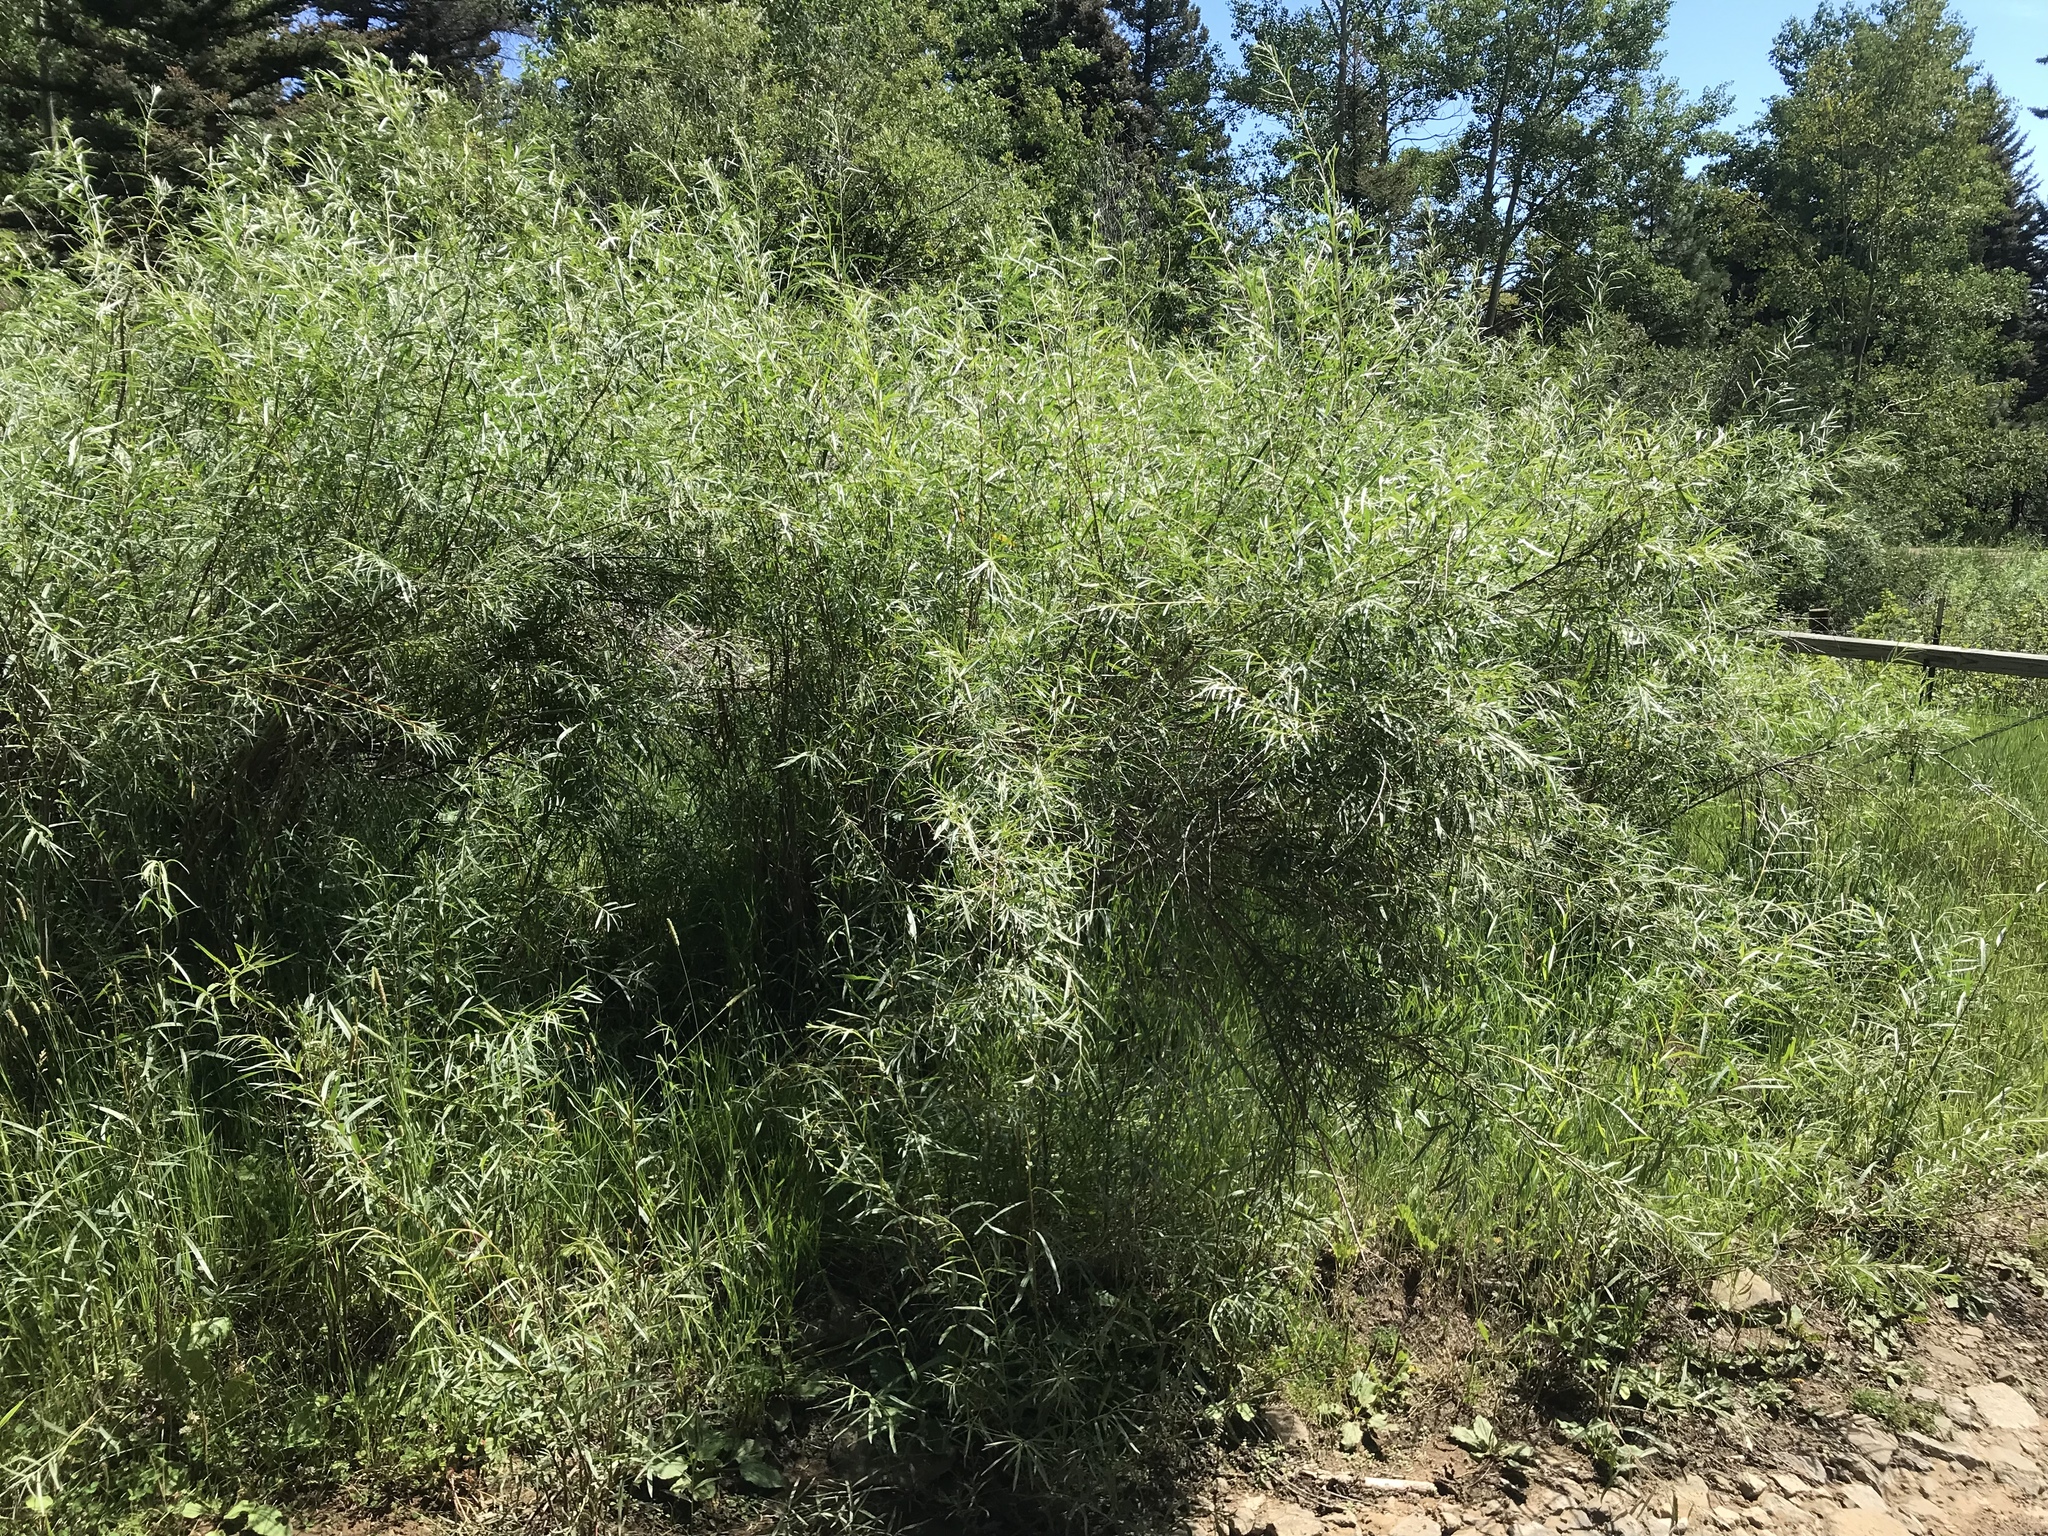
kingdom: Plantae
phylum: Tracheophyta
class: Magnoliopsida
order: Malpighiales
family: Salicaceae
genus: Salix
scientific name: Salix exigua
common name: Coyote willow
